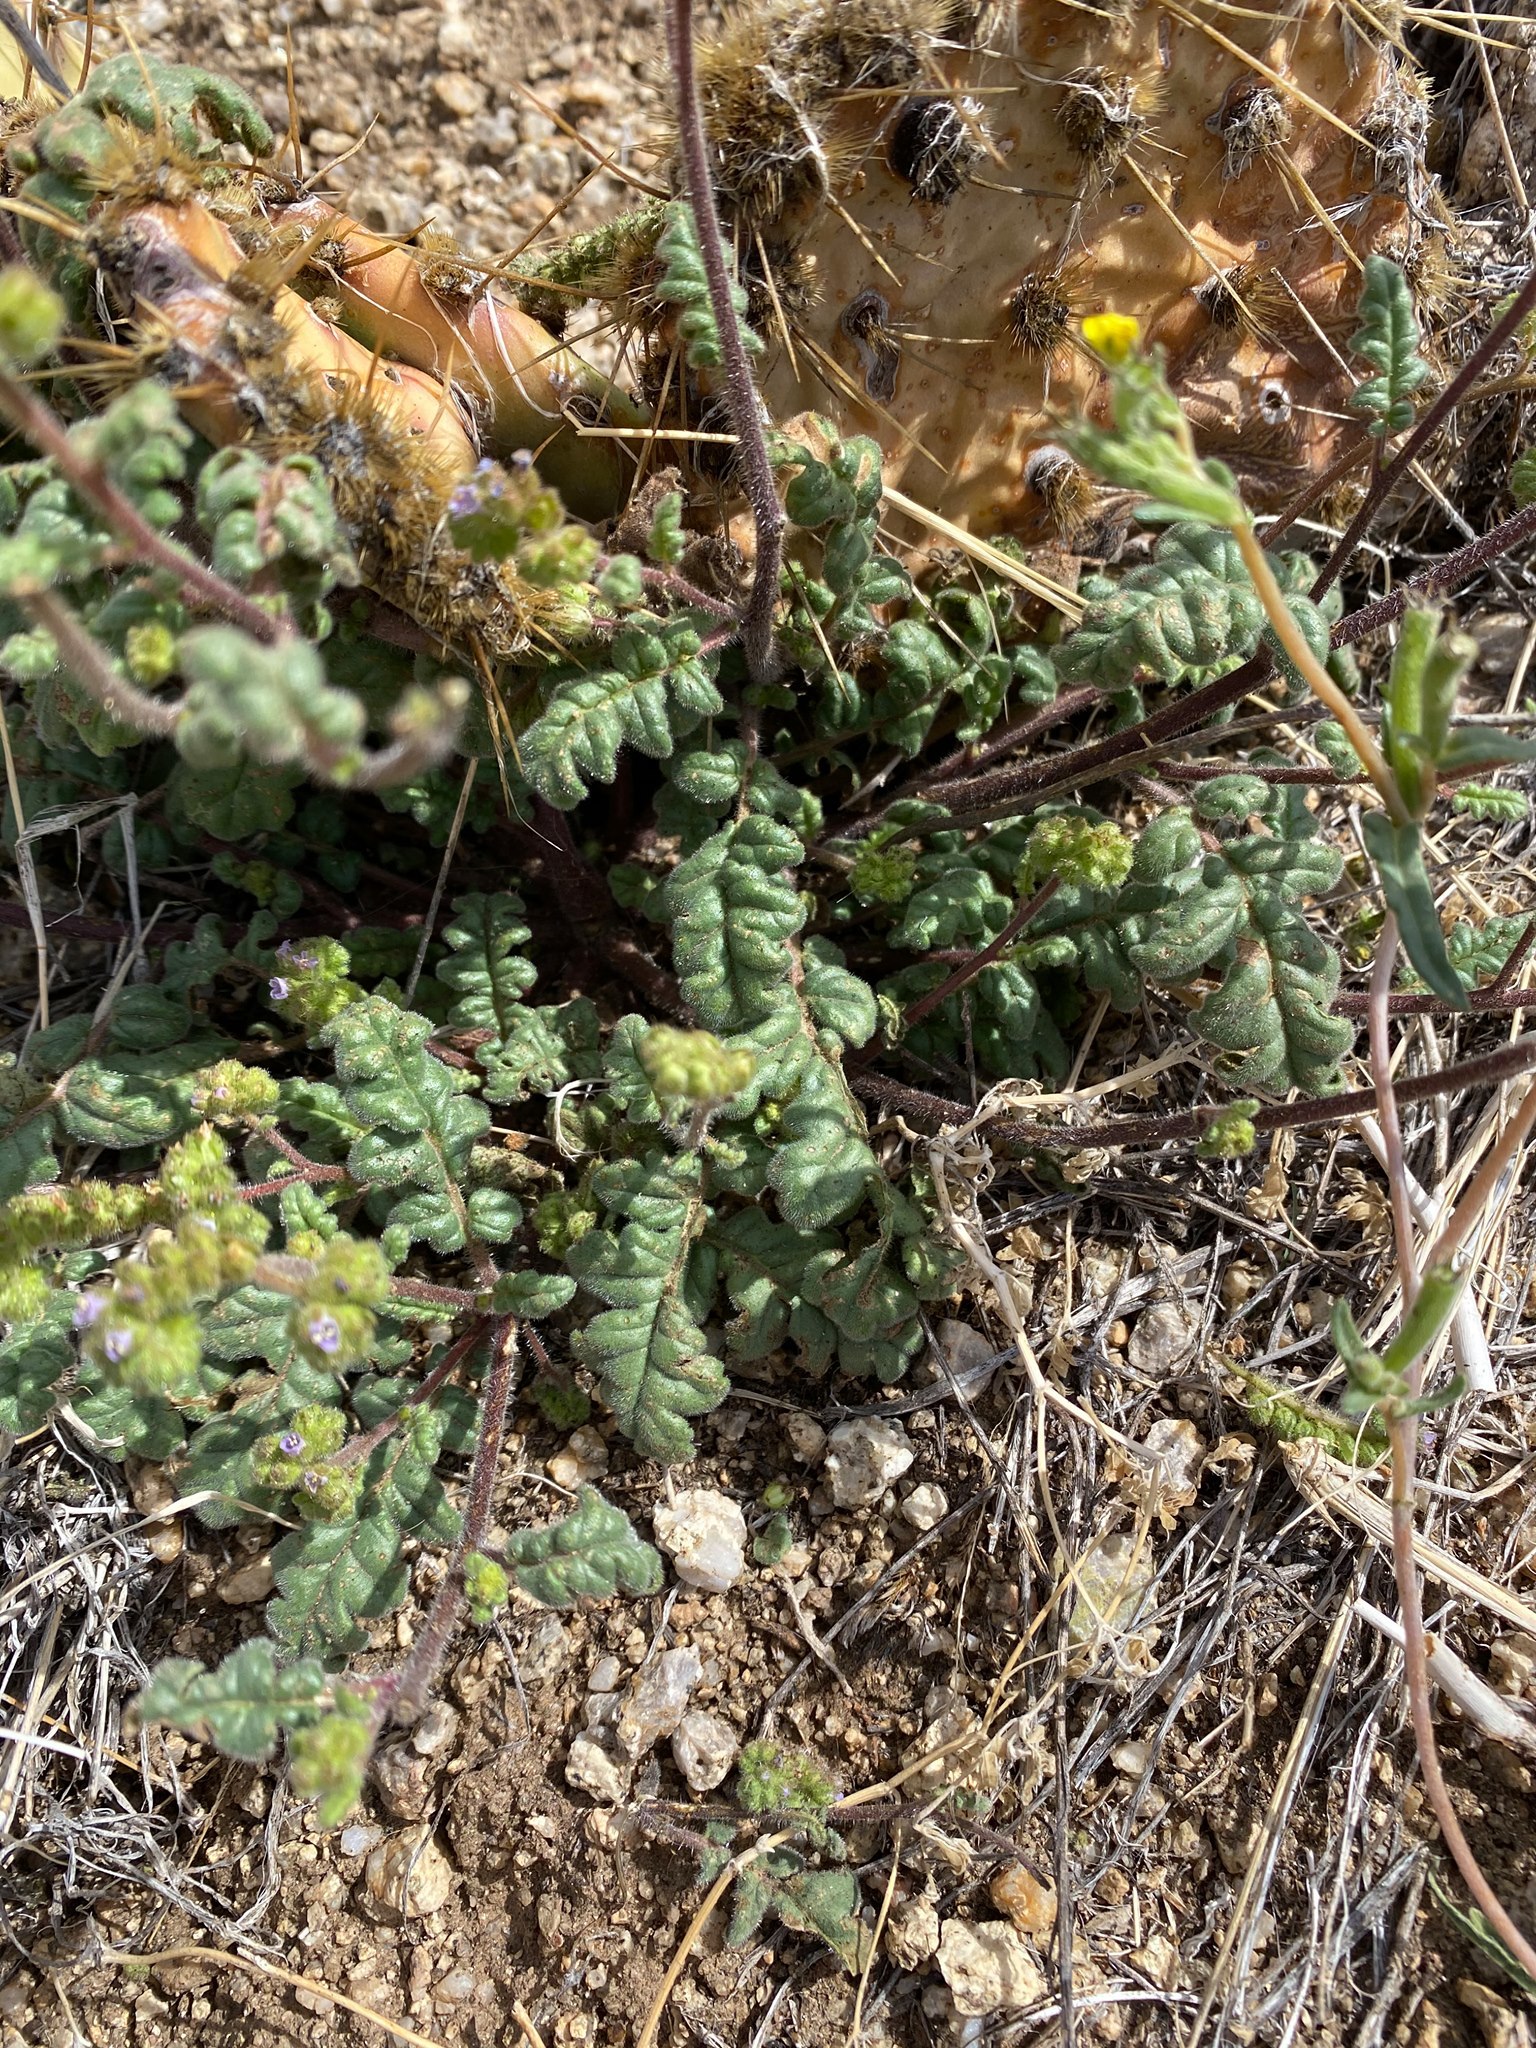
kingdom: Plantae
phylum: Tracheophyta
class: Magnoliopsida
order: Boraginales
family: Hydrophyllaceae
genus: Phacelia
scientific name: Phacelia coerulea
